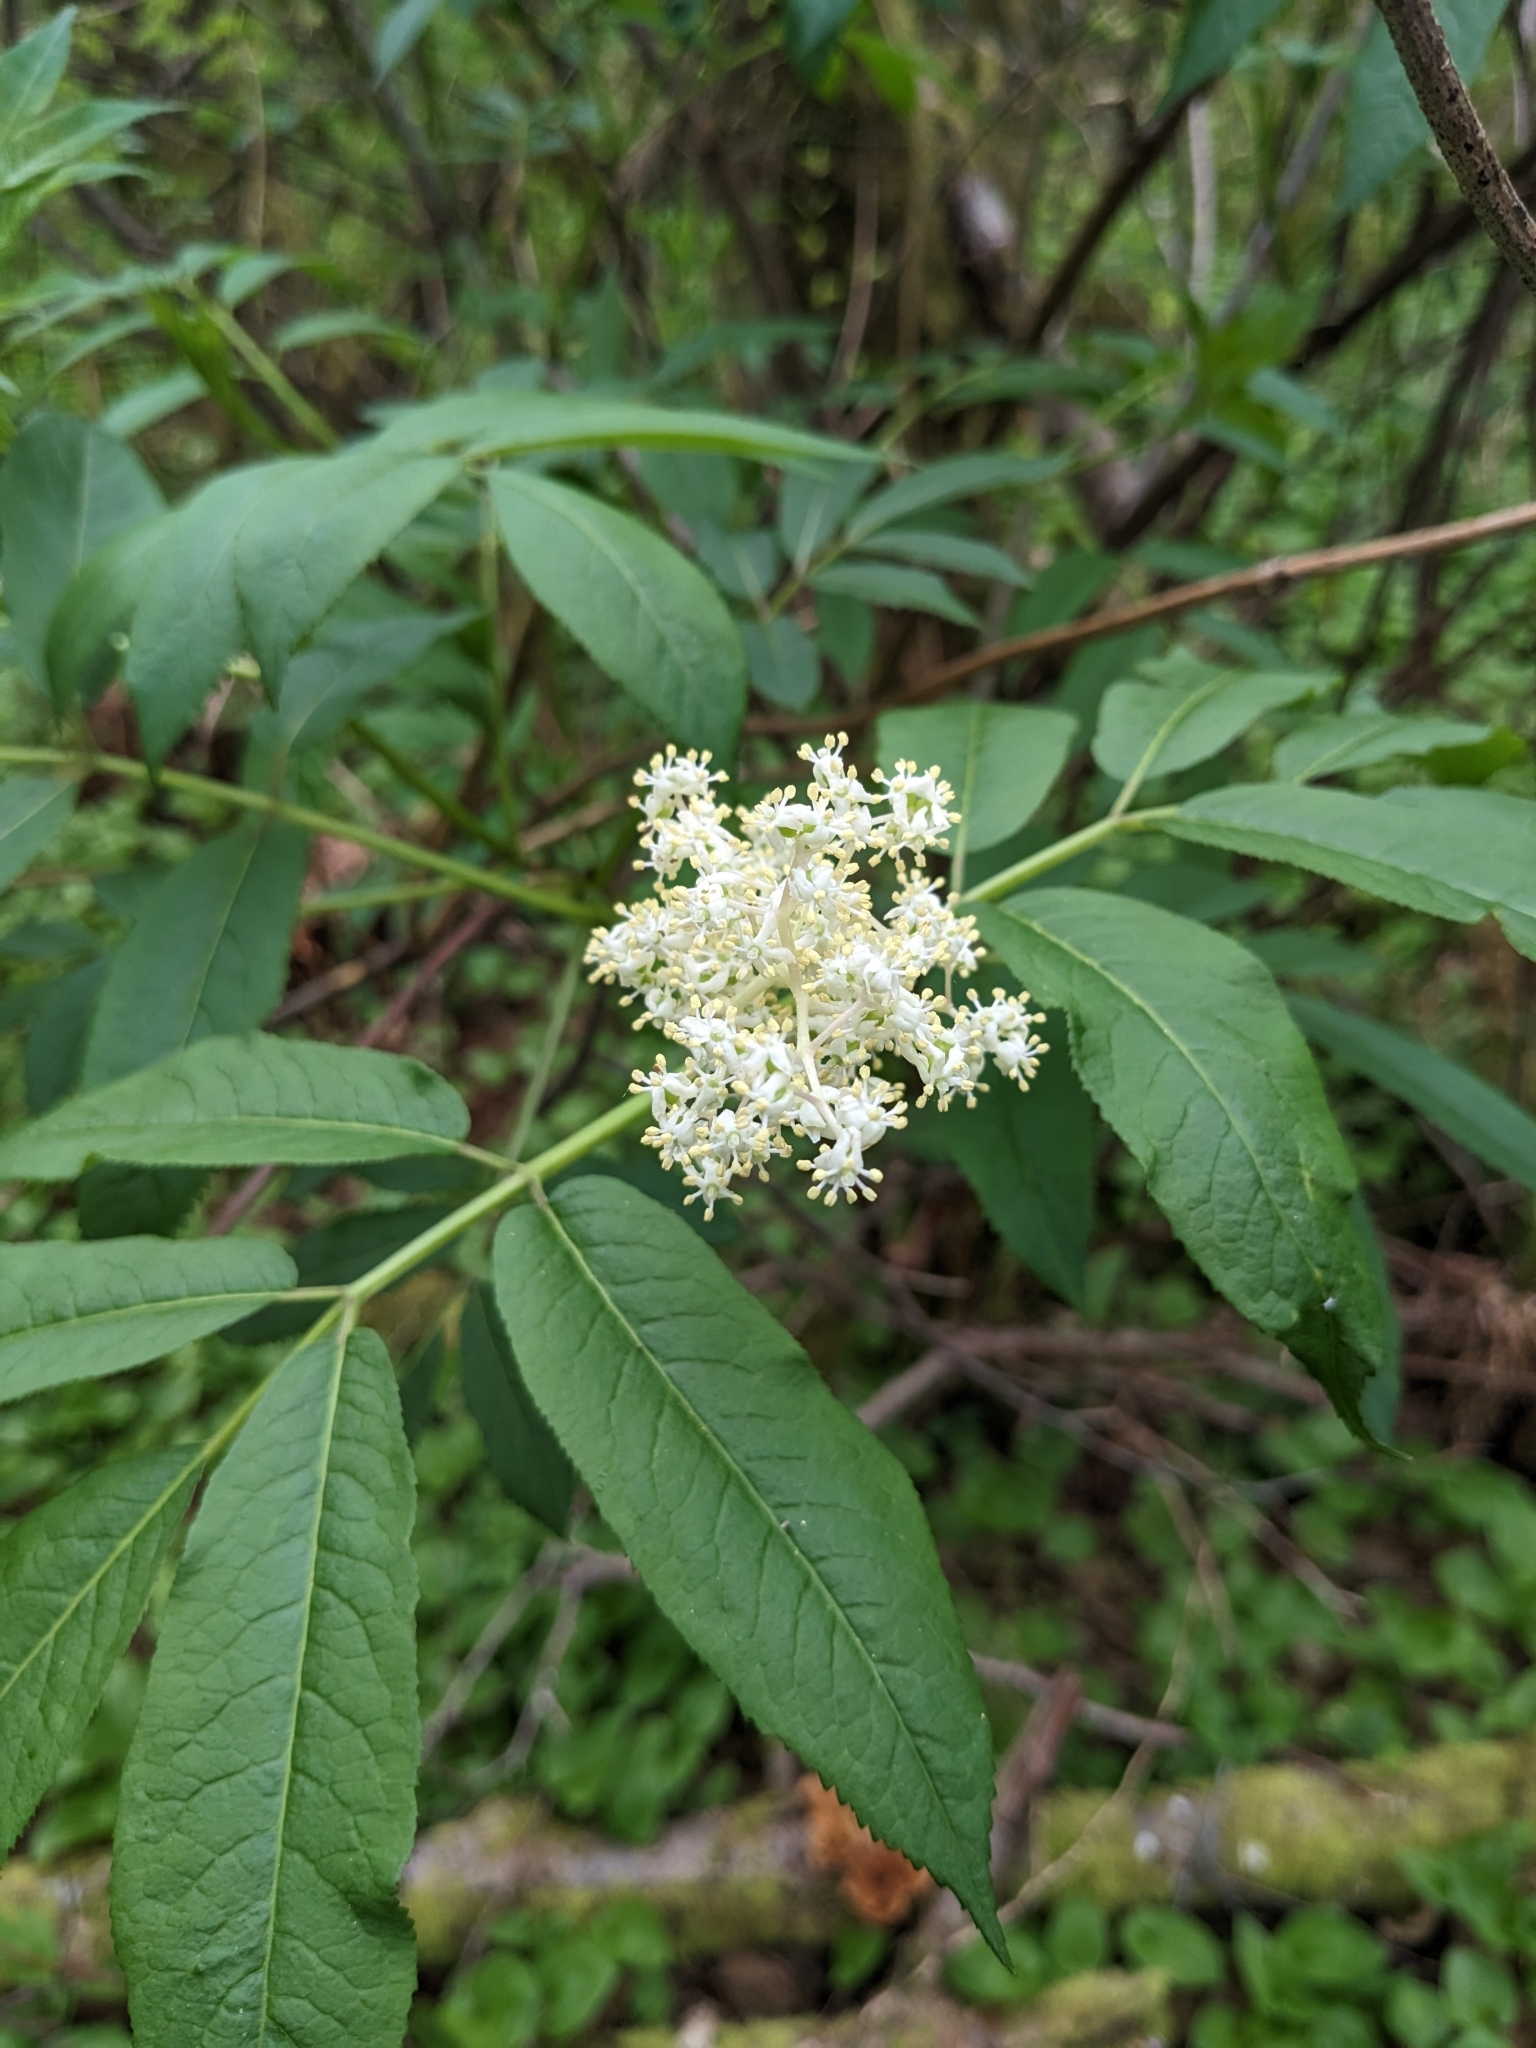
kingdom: Plantae
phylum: Tracheophyta
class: Magnoliopsida
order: Dipsacales
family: Viburnaceae
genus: Sambucus
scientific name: Sambucus racemosa
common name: Red-berried elder
